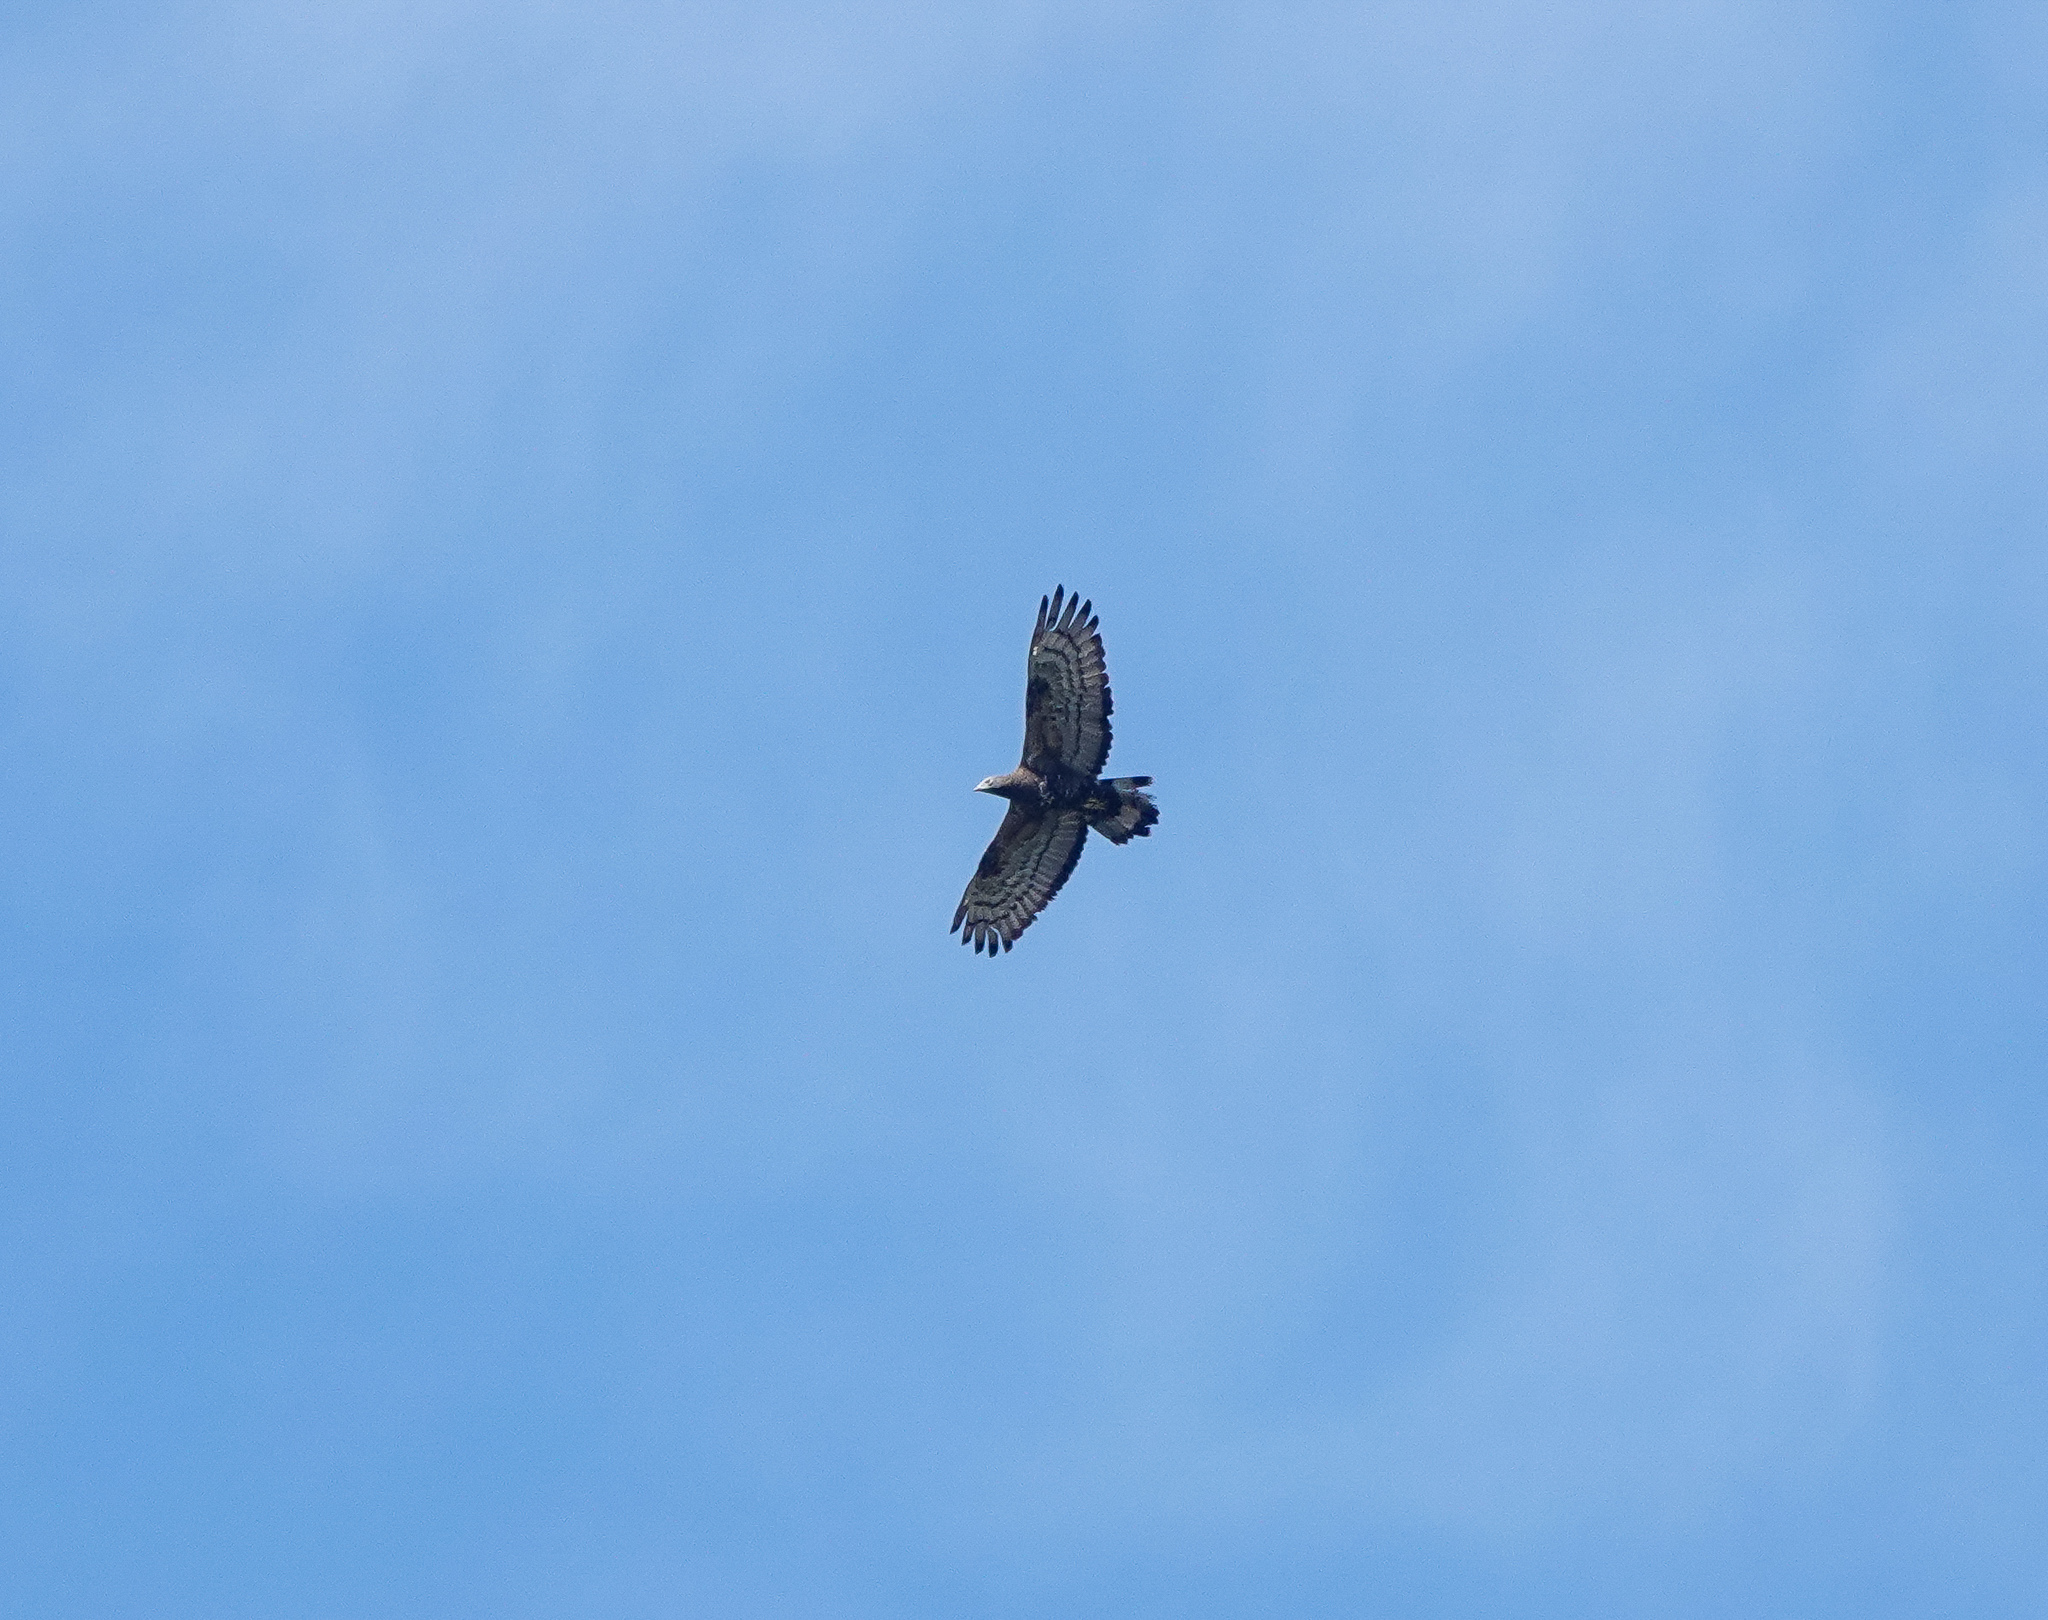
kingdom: Animalia
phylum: Chordata
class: Aves
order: Accipitriformes
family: Accipitridae
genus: Pernis
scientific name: Pernis ptilorhynchus
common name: Crested honey buzzard
